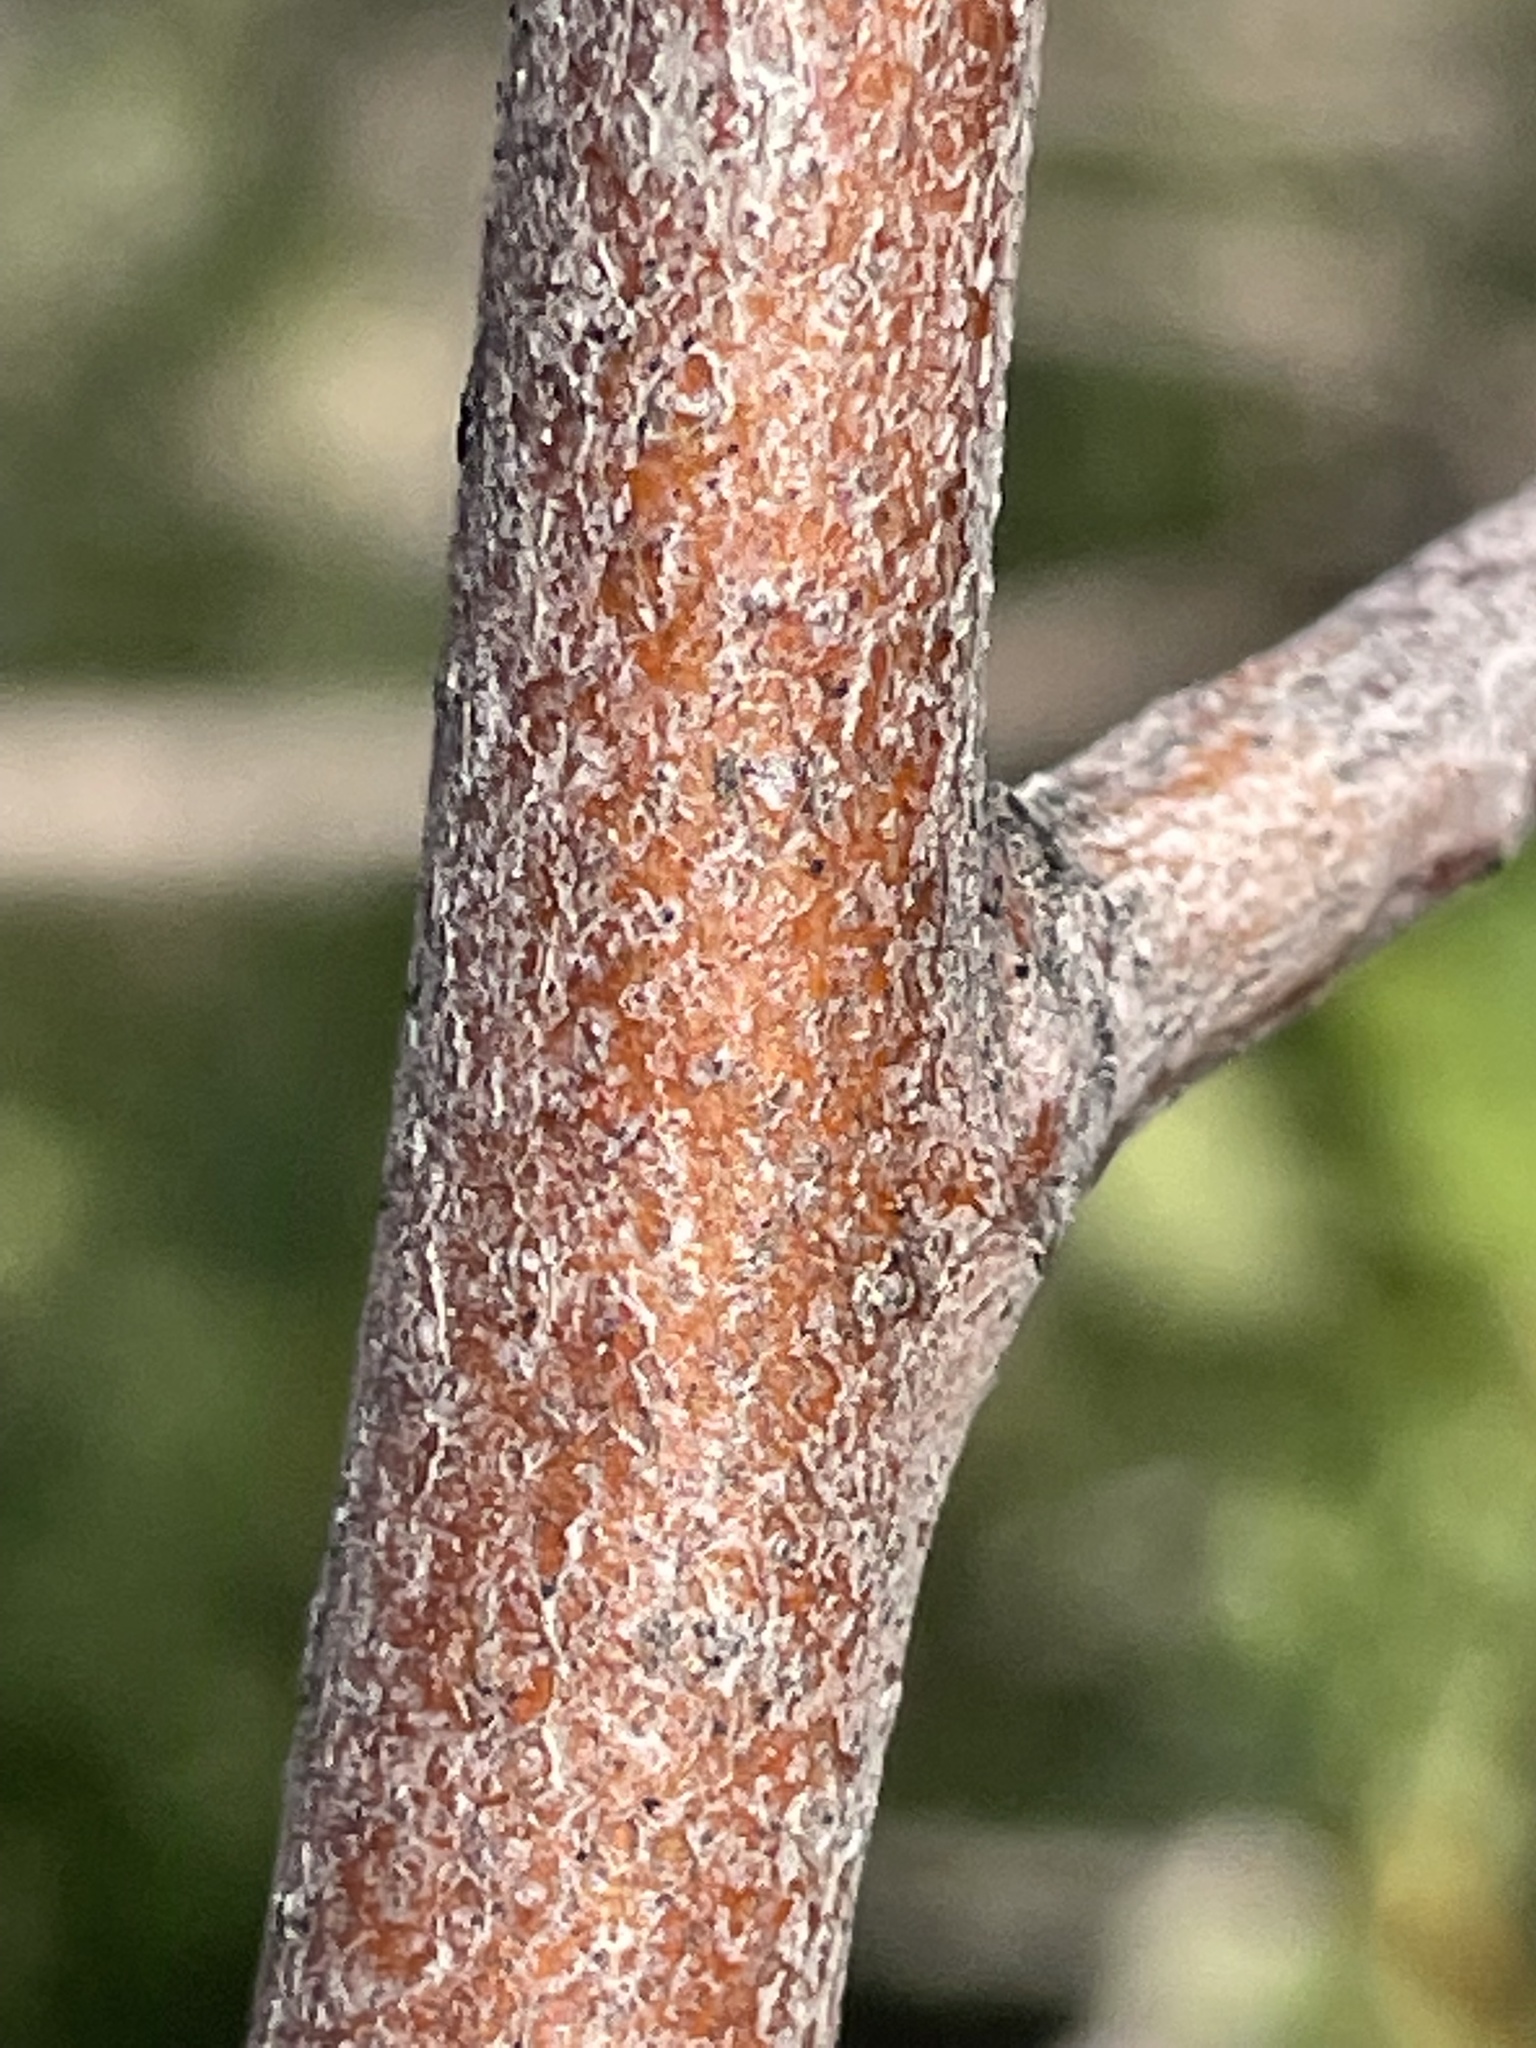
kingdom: Plantae
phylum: Tracheophyta
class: Magnoliopsida
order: Rosales
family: Rosaceae
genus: Amelanchier
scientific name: Amelanchier utahensis
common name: Utah serviceberry
